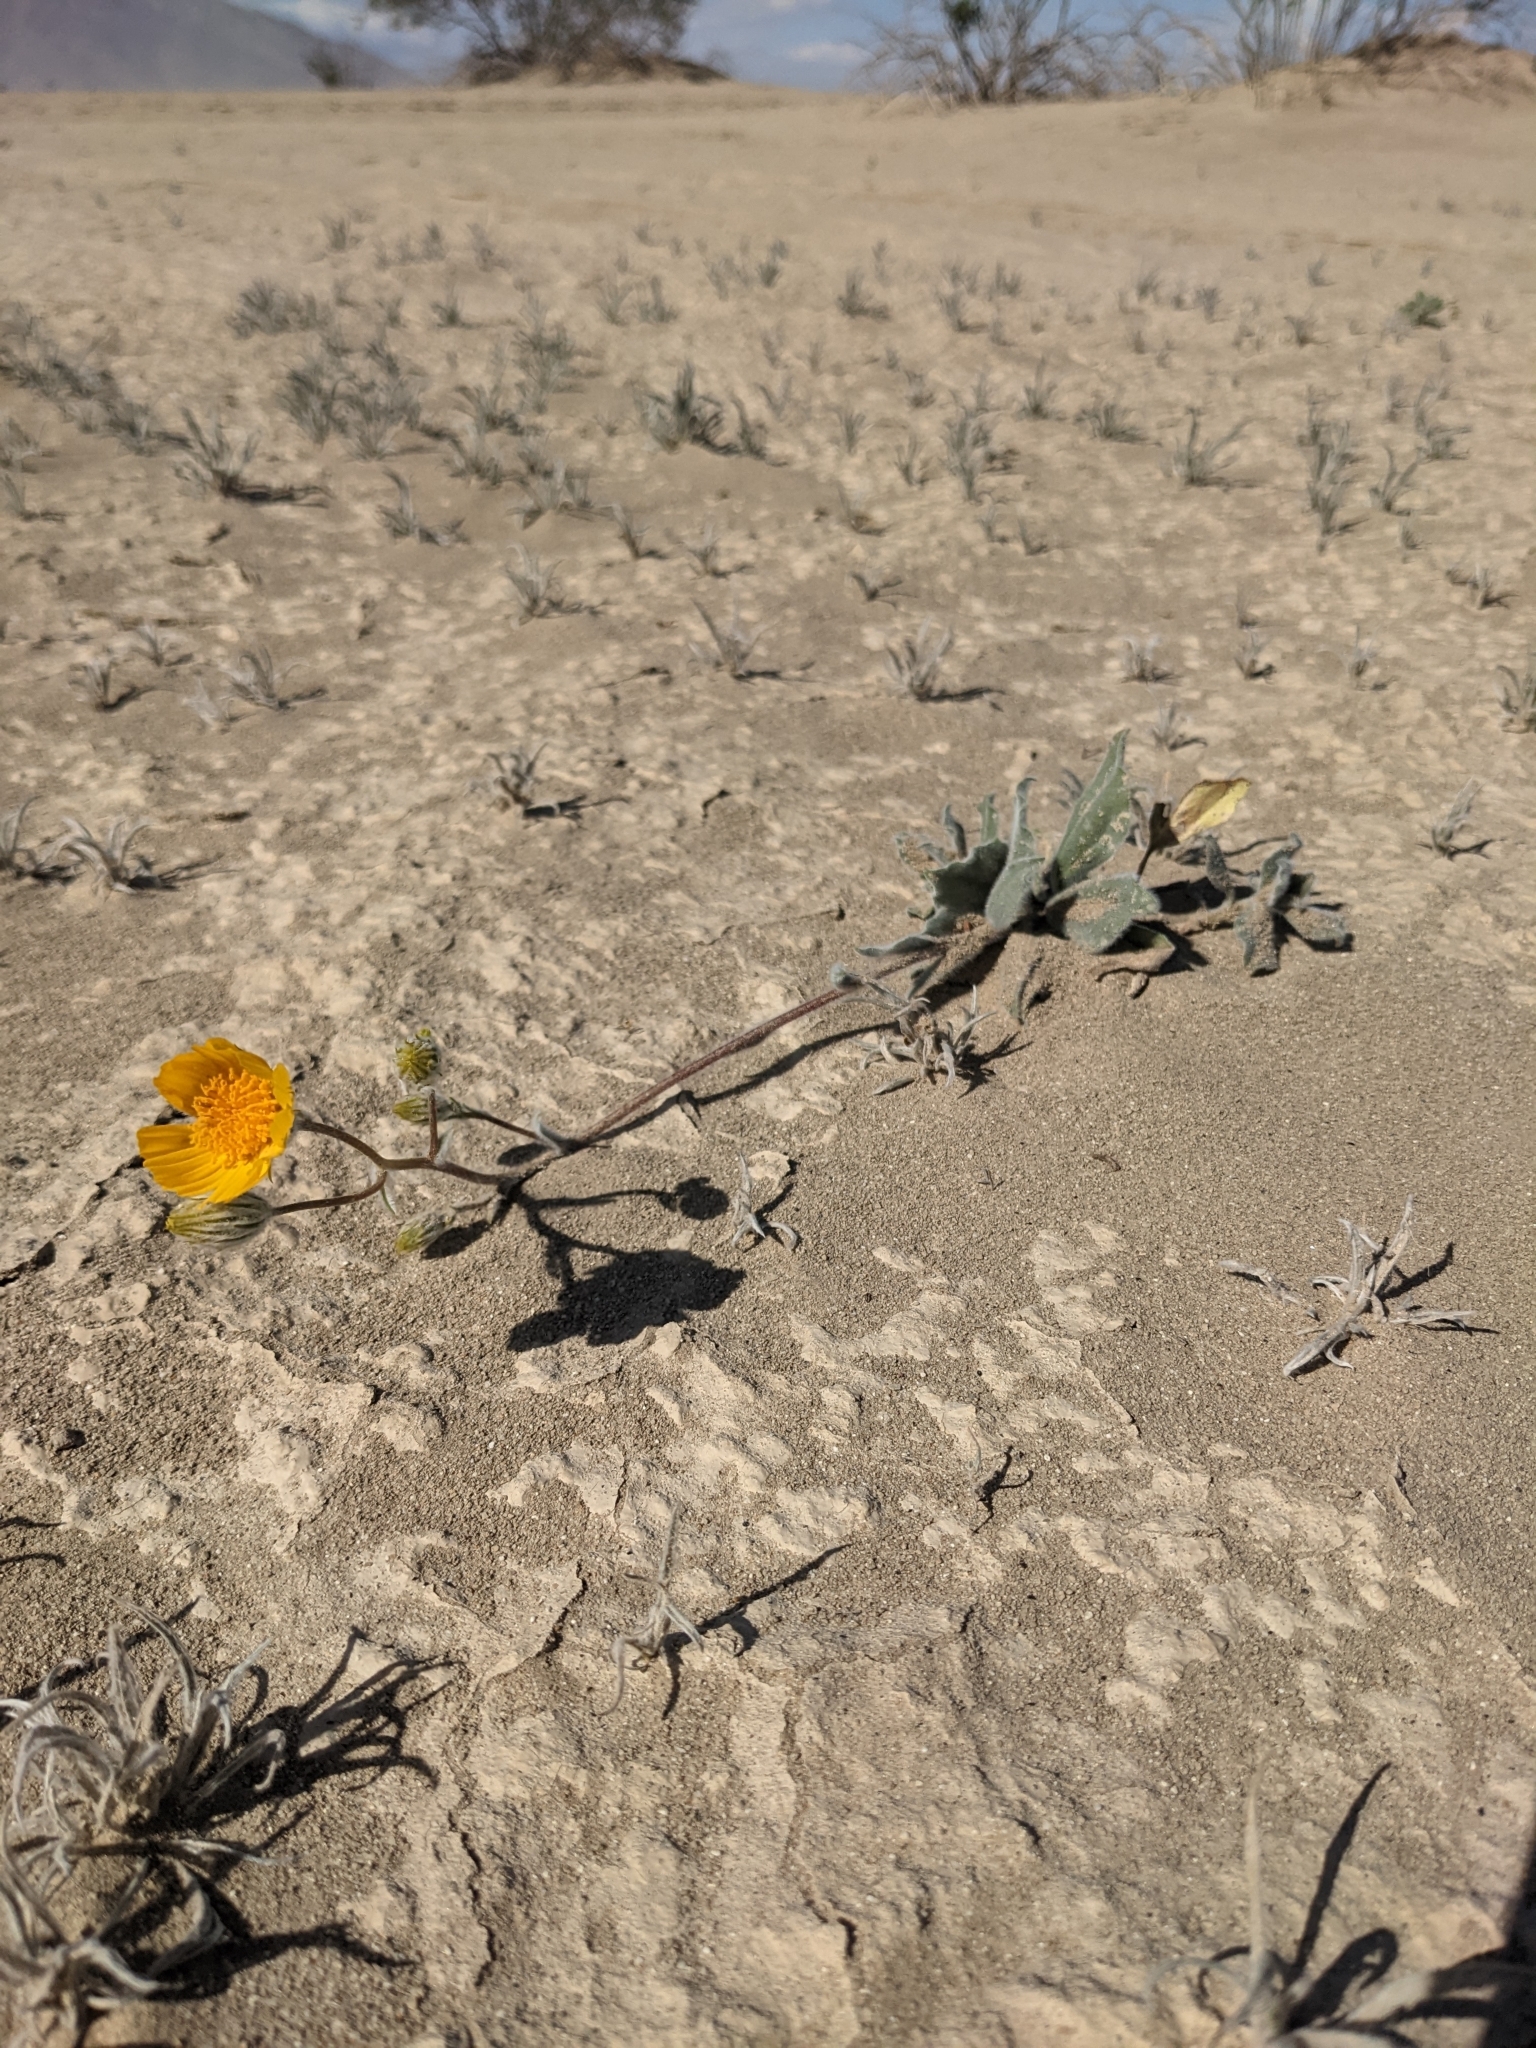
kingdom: Plantae
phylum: Tracheophyta
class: Magnoliopsida
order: Asterales
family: Asteraceae
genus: Geraea
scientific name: Geraea canescens
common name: Desert-gold
